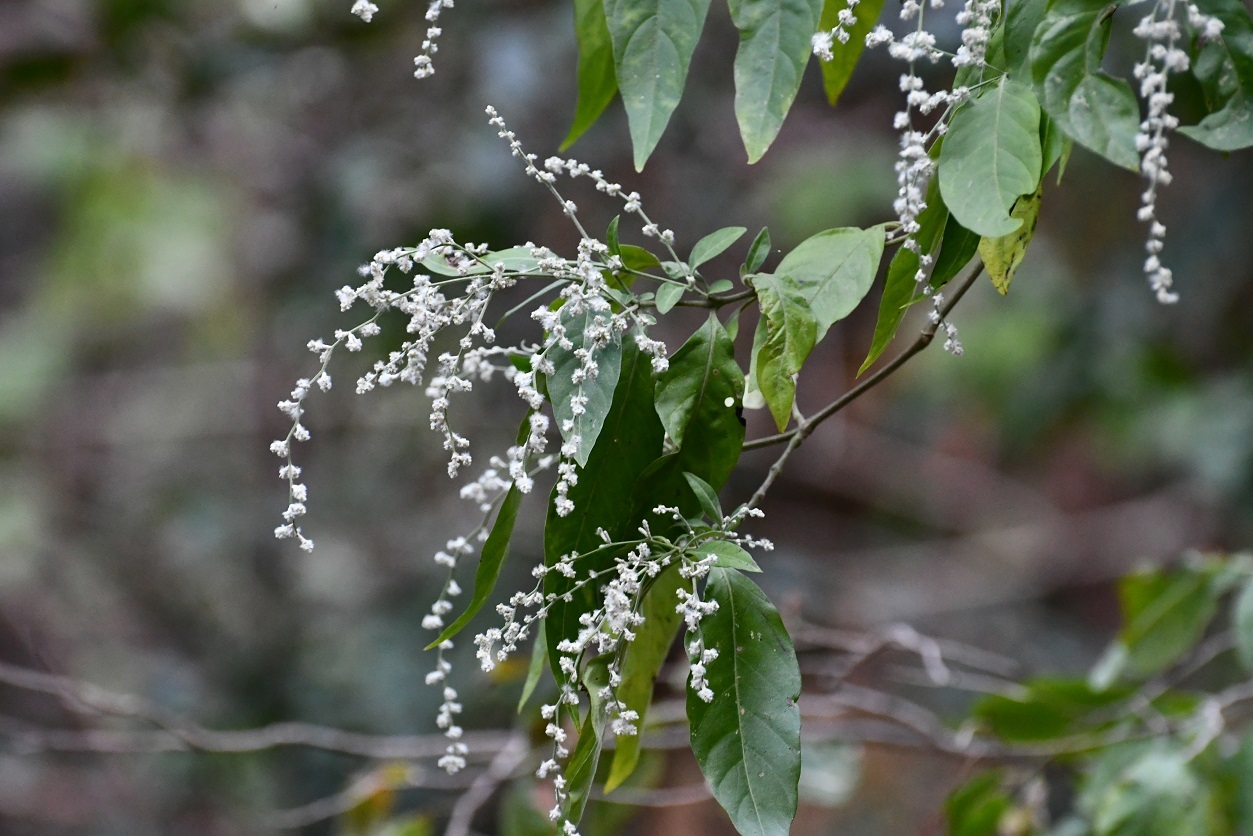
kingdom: Plantae
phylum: Tracheophyta
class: Magnoliopsida
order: Caryophyllales
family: Amaranthaceae
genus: Iresine
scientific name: Iresine arbuscula
